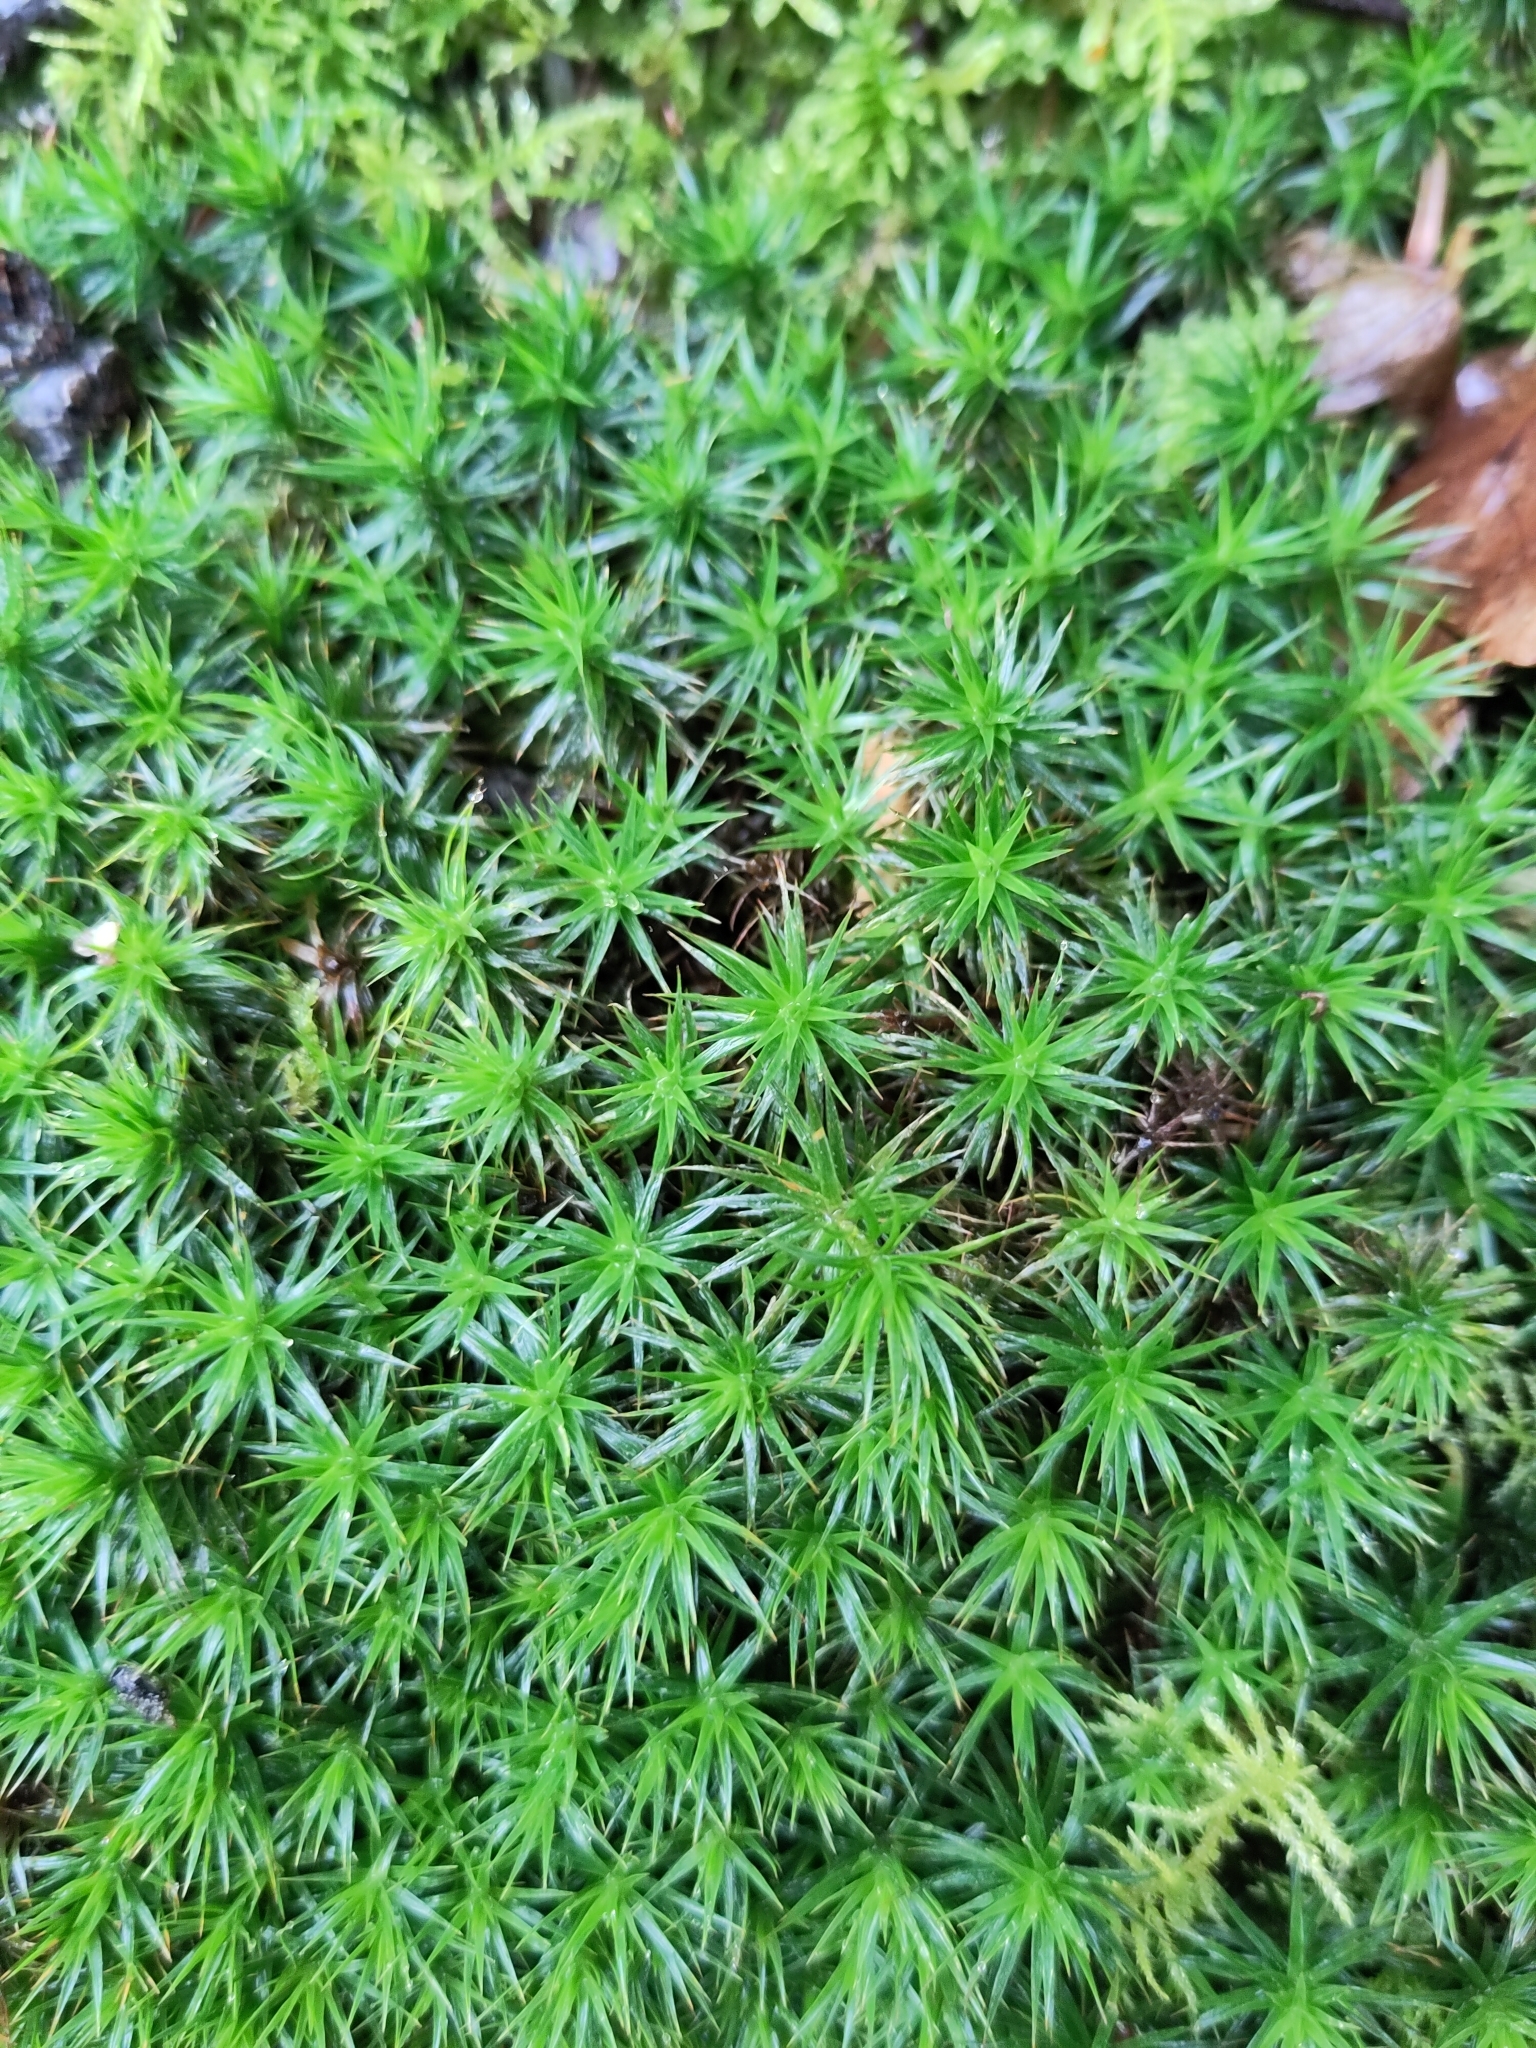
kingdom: Plantae
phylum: Bryophyta
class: Polytrichopsida
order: Polytrichales
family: Polytrichaceae
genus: Polytrichum
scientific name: Polytrichum formosum
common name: Bank haircap moss
